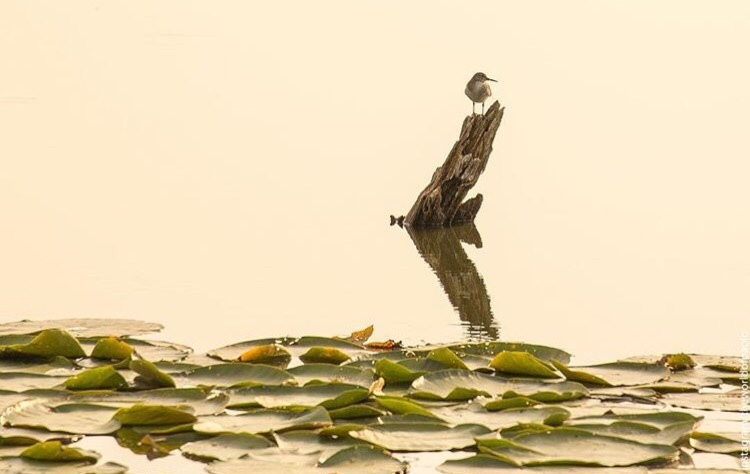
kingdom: Animalia
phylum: Chordata
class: Aves
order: Charadriiformes
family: Scolopacidae
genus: Actitis
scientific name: Actitis hypoleucos
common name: Common sandpiper
